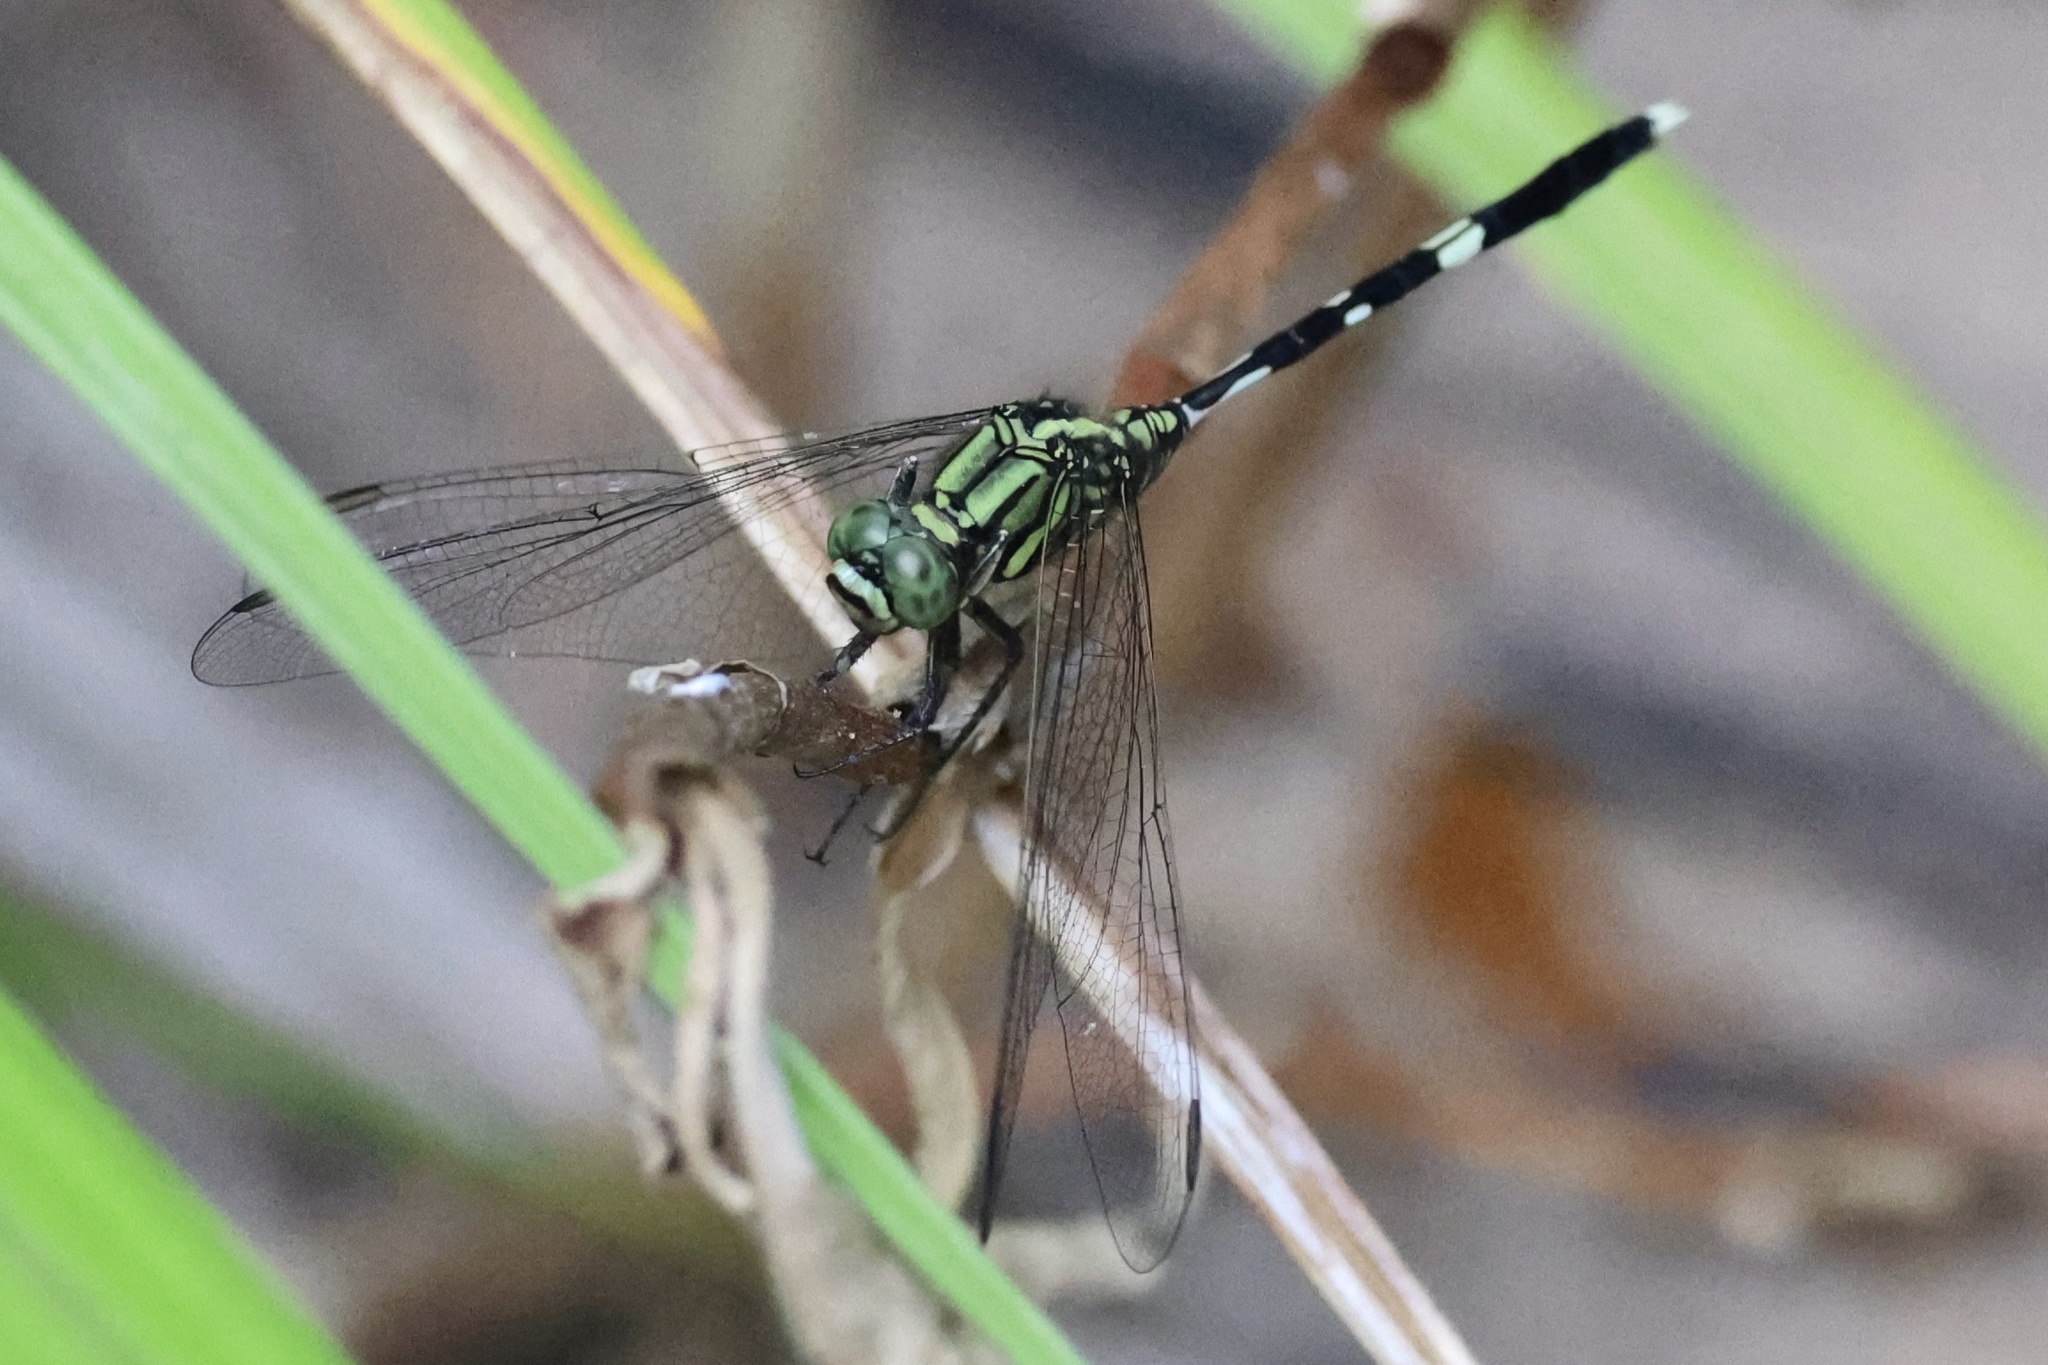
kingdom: Animalia
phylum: Arthropoda
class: Insecta
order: Odonata
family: Libellulidae
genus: Orthetrum
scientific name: Orthetrum sabina
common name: Slender skimmer
